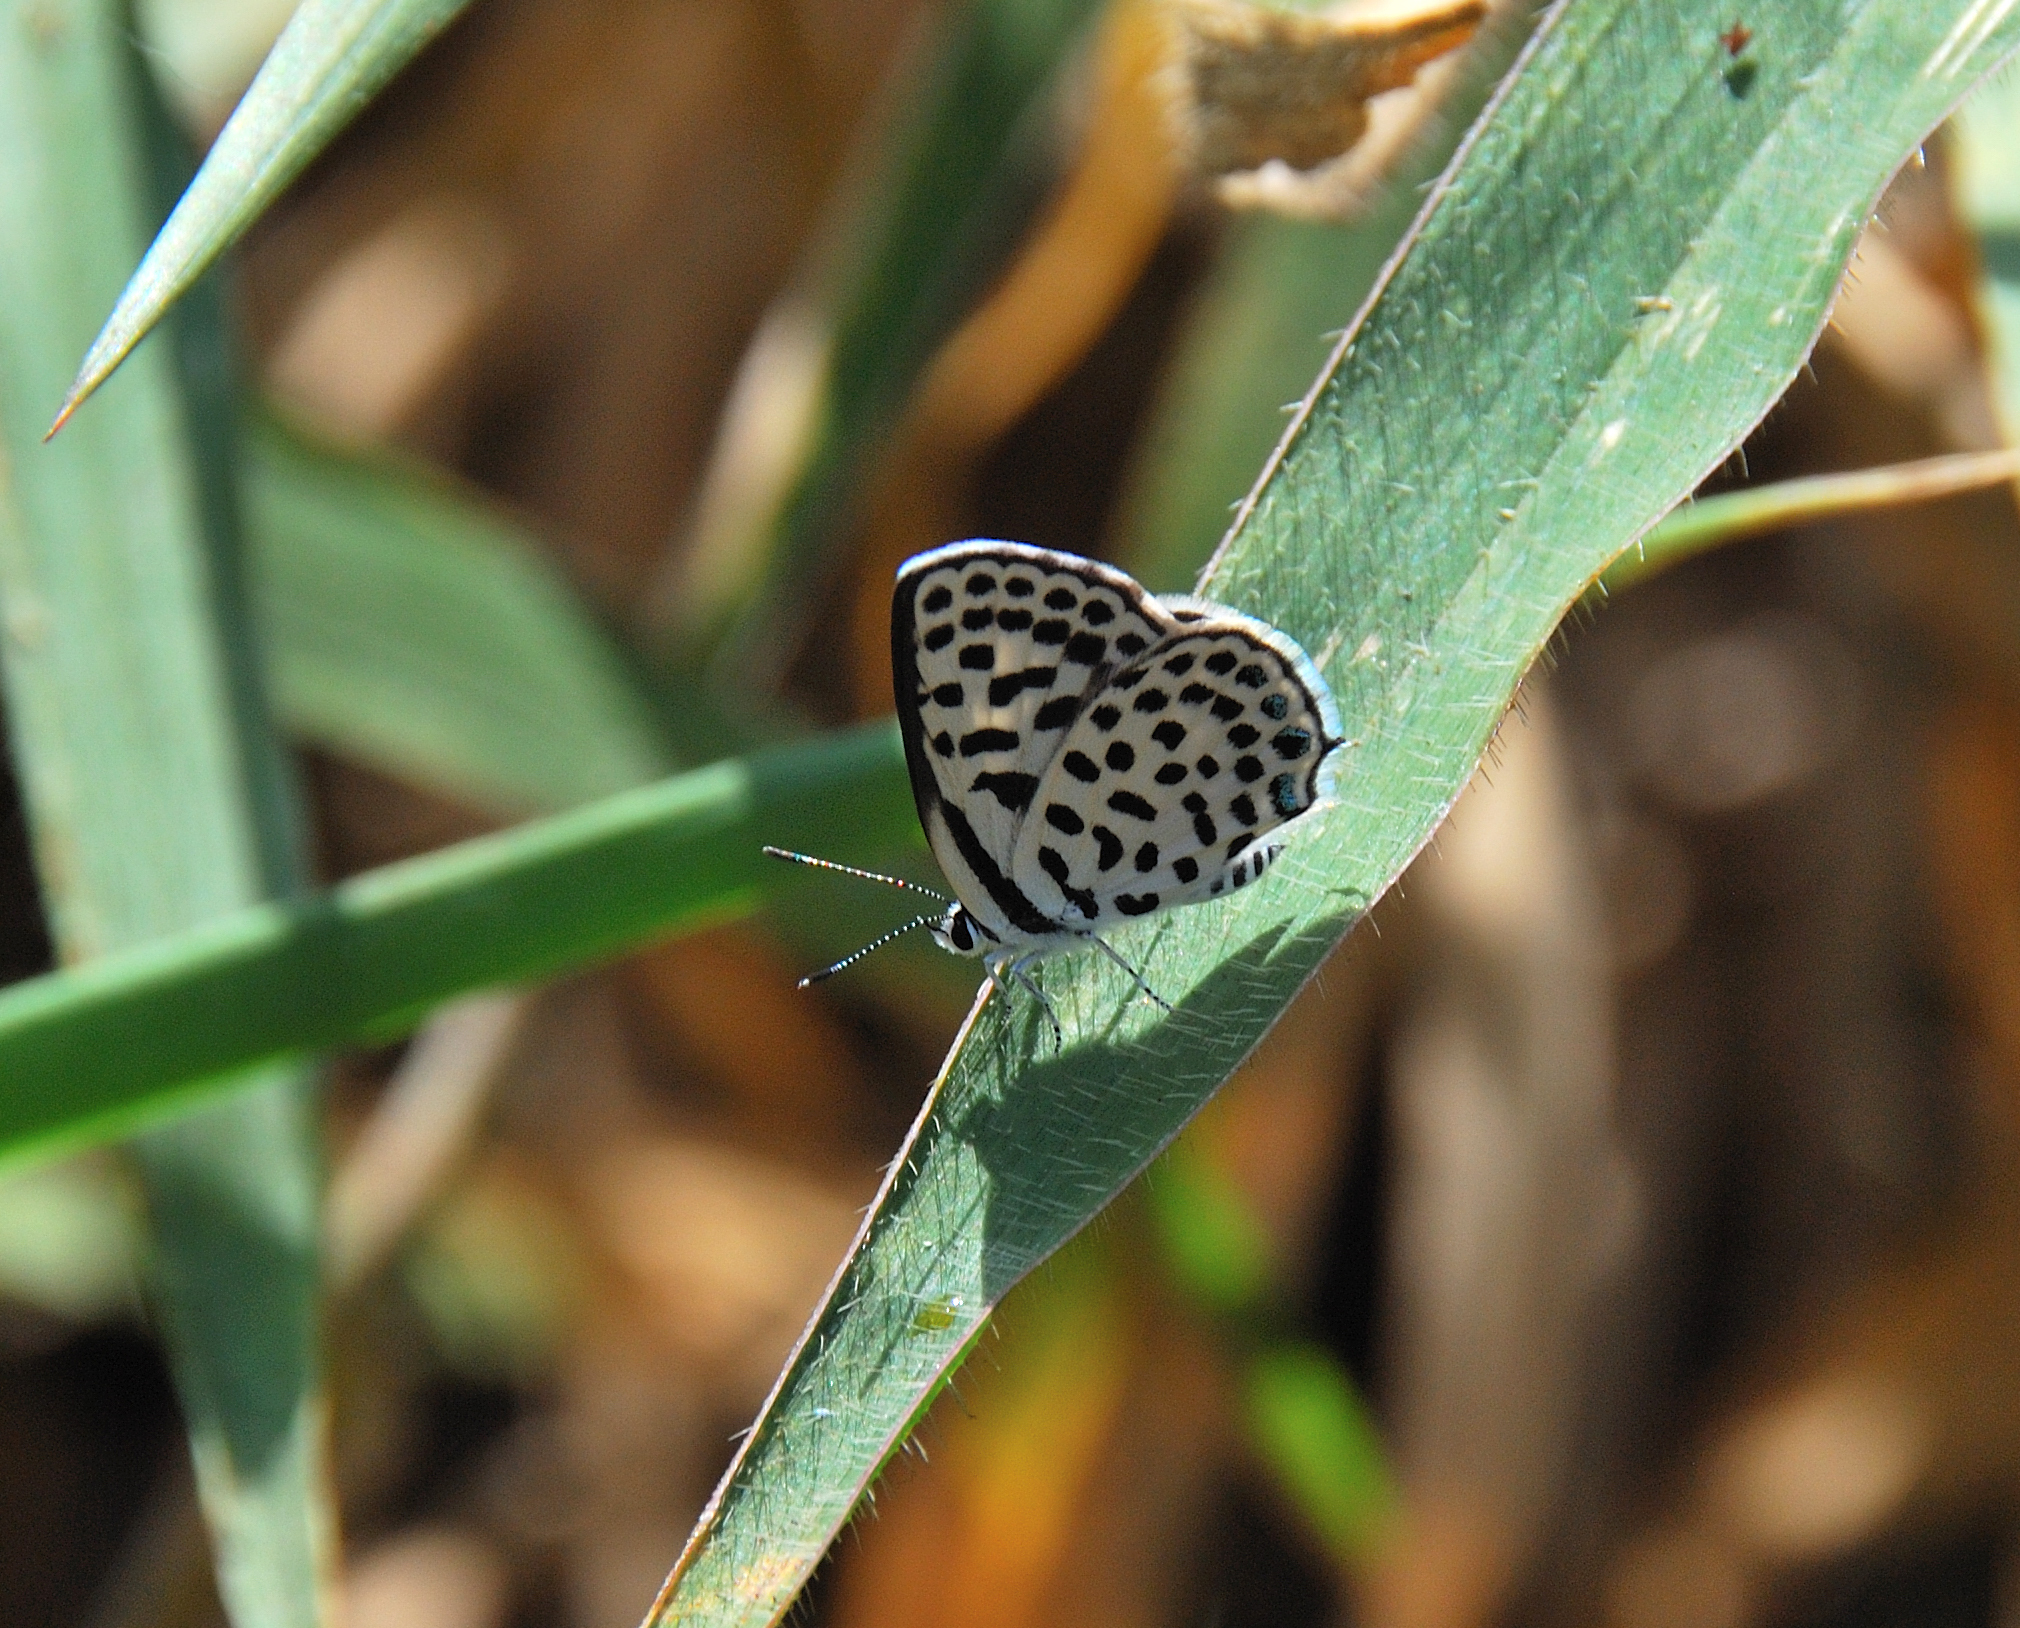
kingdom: Animalia
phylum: Arthropoda
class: Insecta
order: Lepidoptera
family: Lycaenidae
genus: Tarucus
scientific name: Tarucus sybaris
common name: Dotted blue
